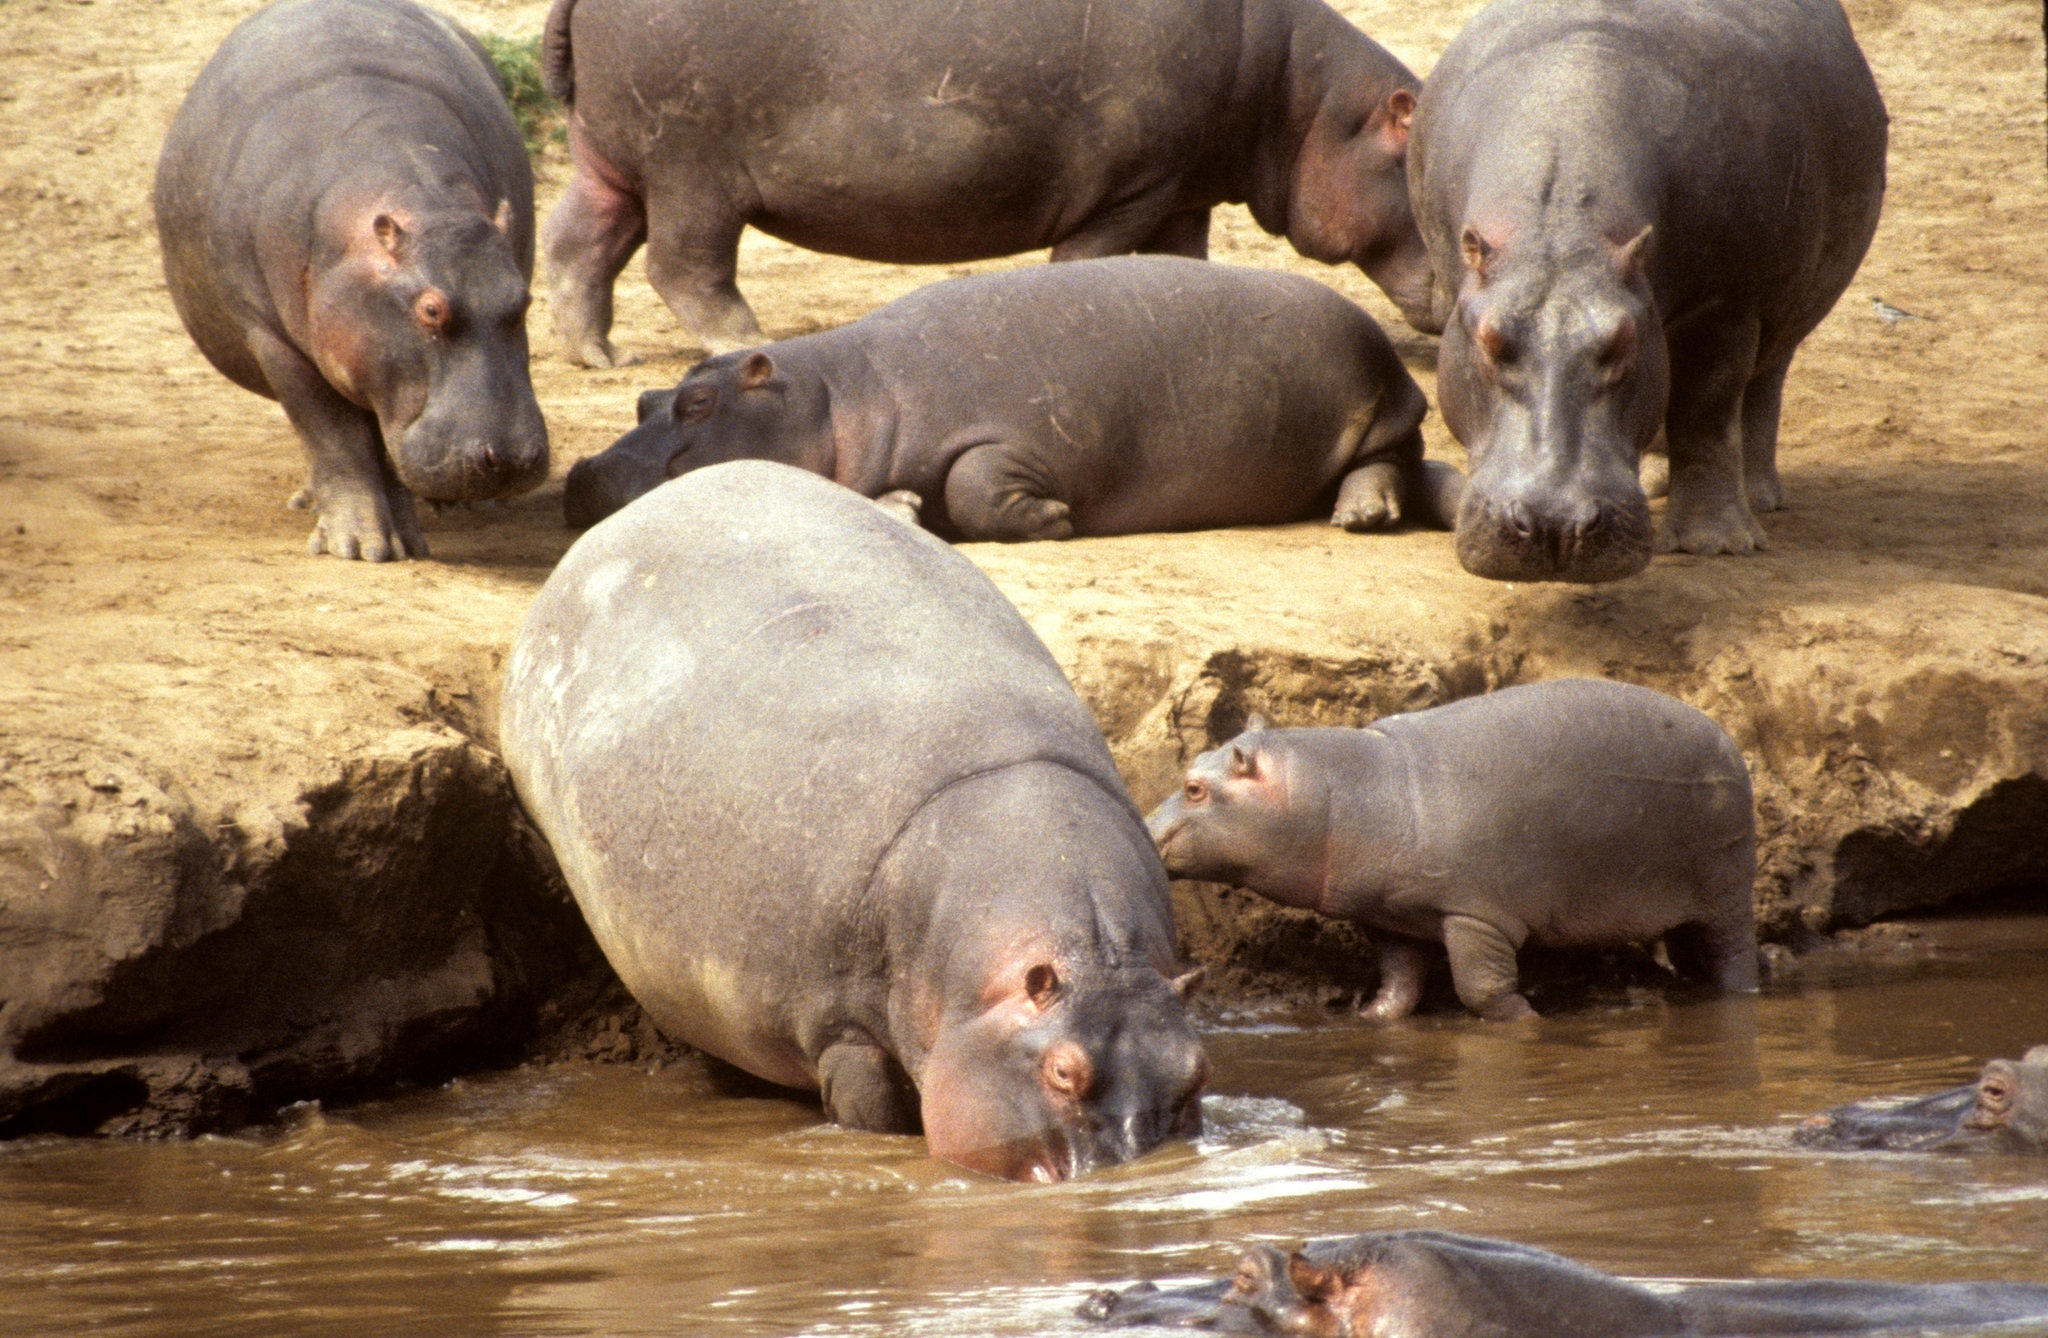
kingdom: Animalia
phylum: Chordata
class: Mammalia
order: Artiodactyla
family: Hippopotamidae
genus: Hippopotamus
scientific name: Hippopotamus amphibius
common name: Common hippopotamus
